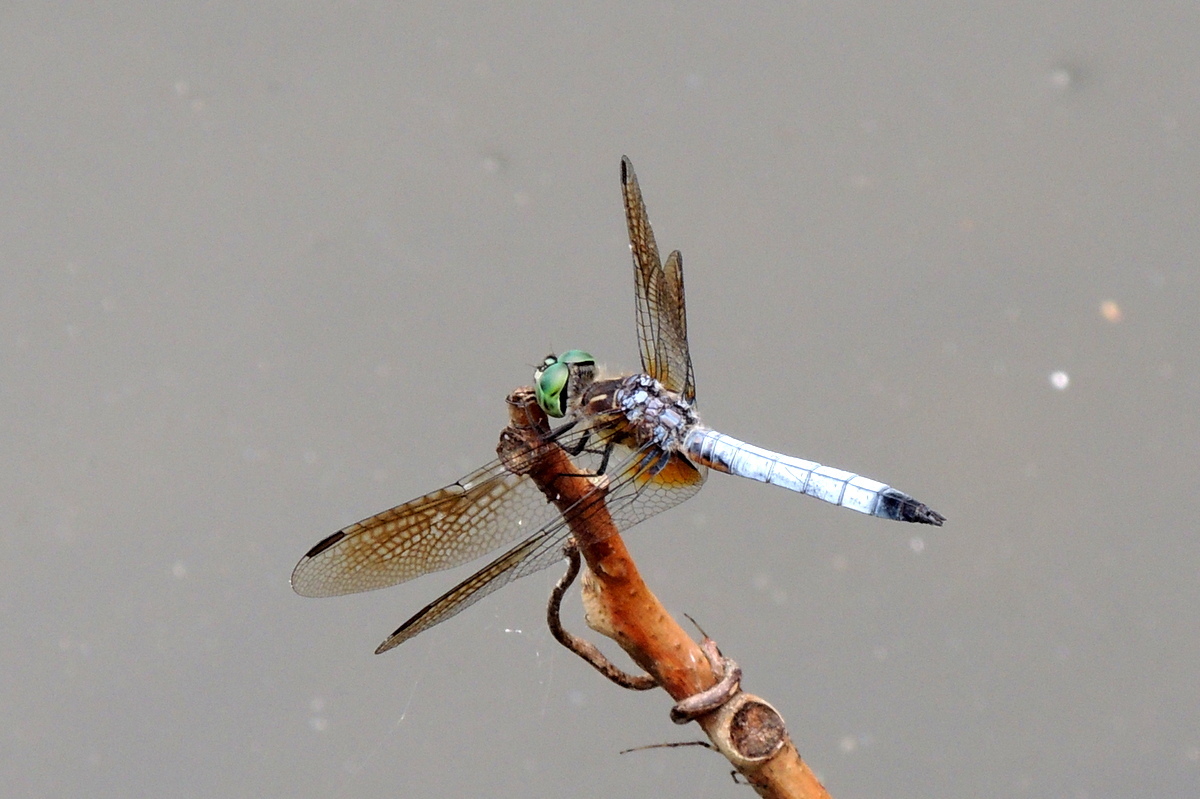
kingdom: Animalia
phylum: Arthropoda
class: Insecta
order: Odonata
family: Libellulidae
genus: Pachydiplax
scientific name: Pachydiplax longipennis
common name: Blue dasher
